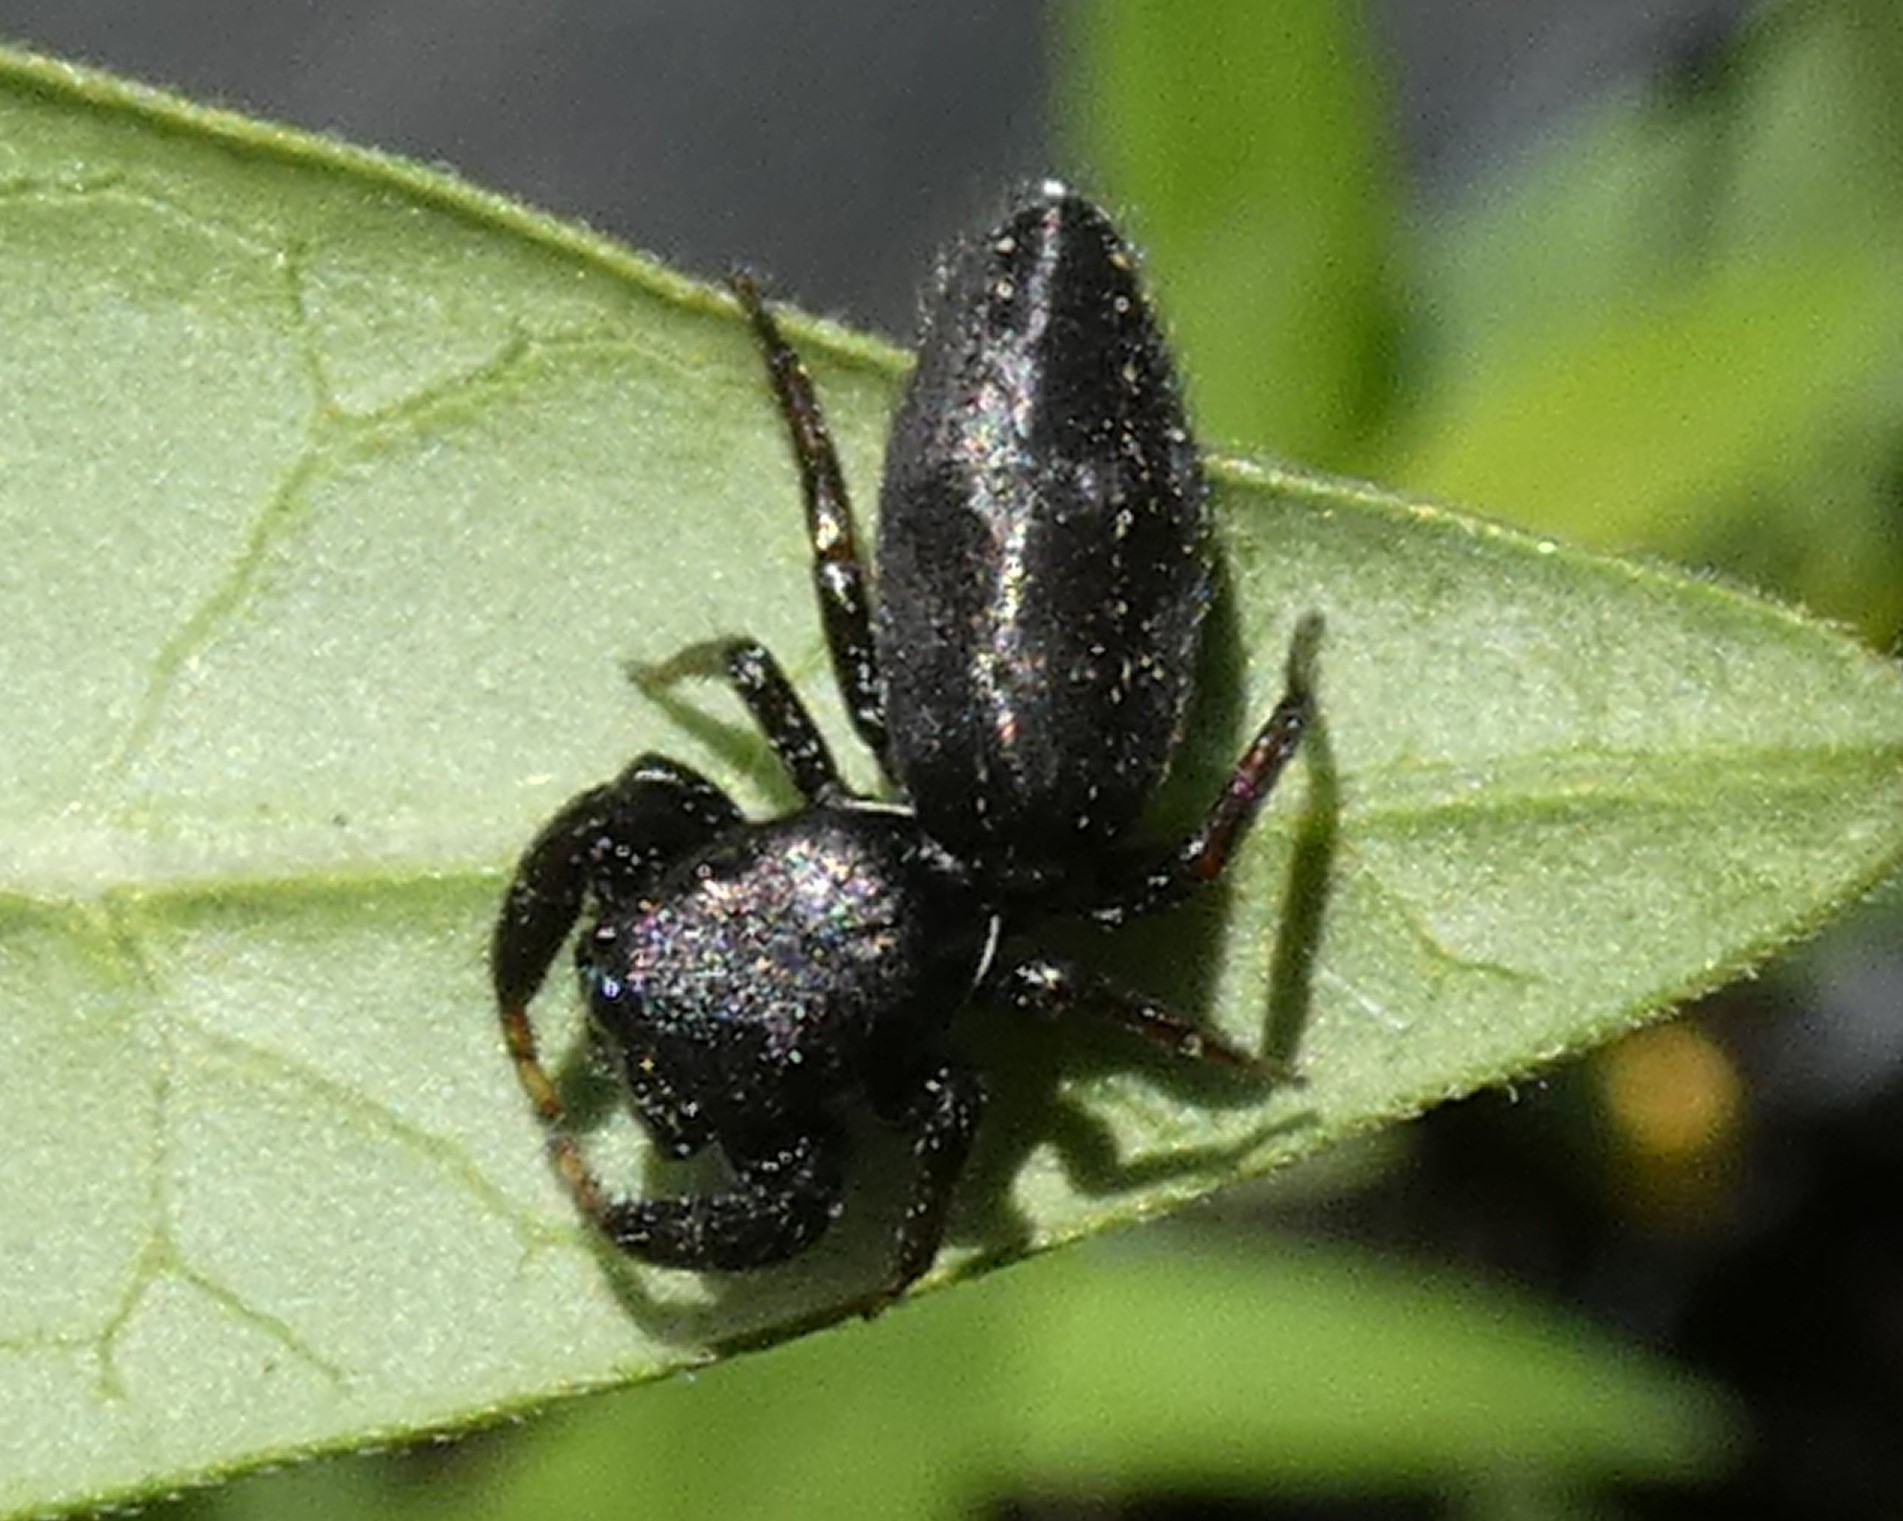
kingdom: Animalia
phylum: Arthropoda
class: Arachnida
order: Araneae
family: Salticidae
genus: Metacyrba
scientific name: Metacyrba taeniola
